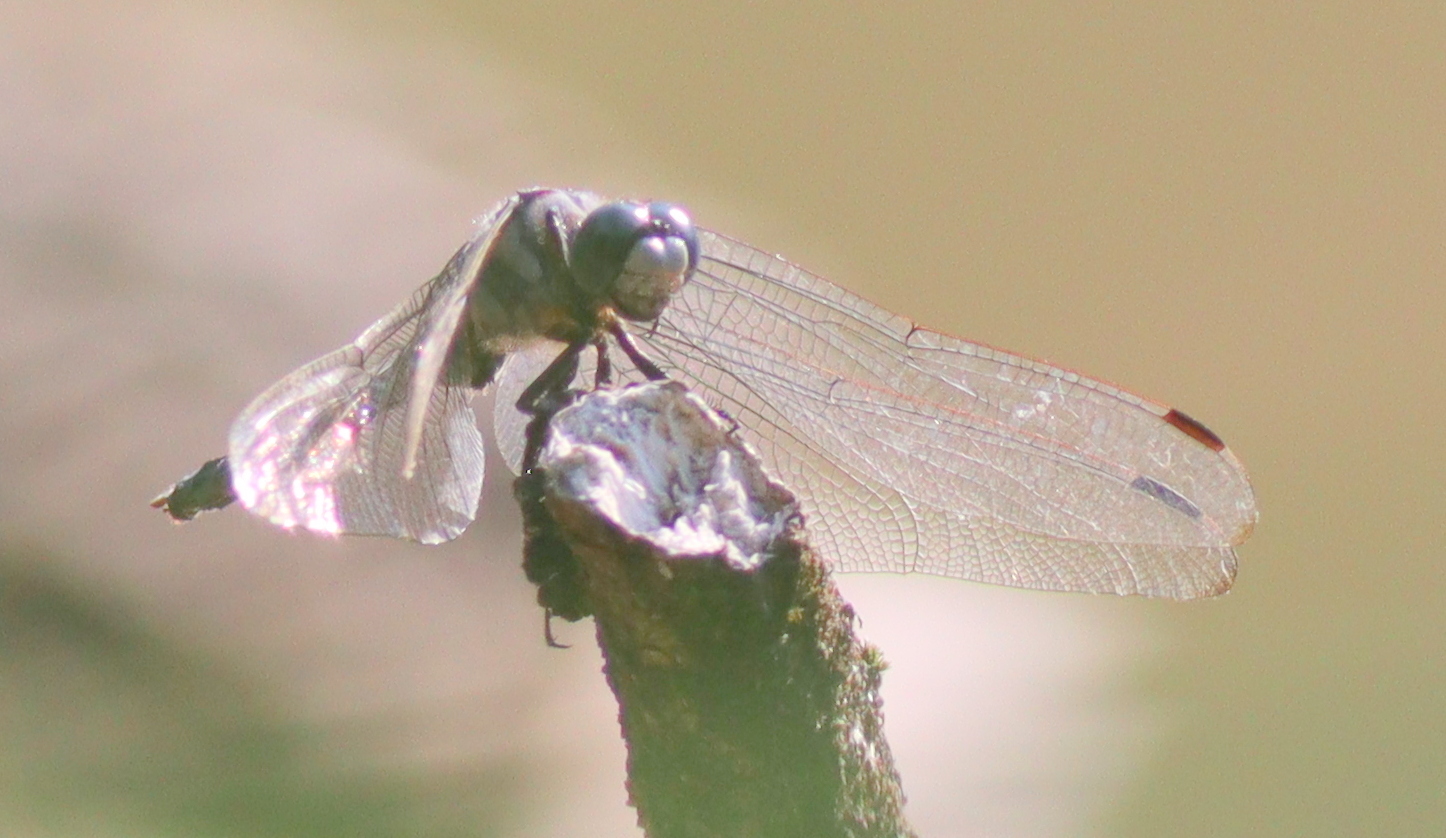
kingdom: Animalia
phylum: Arthropoda
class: Insecta
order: Odonata
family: Libellulidae
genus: Orthetrum
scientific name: Orthetrum albistylum
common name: White-tailed skimmer
